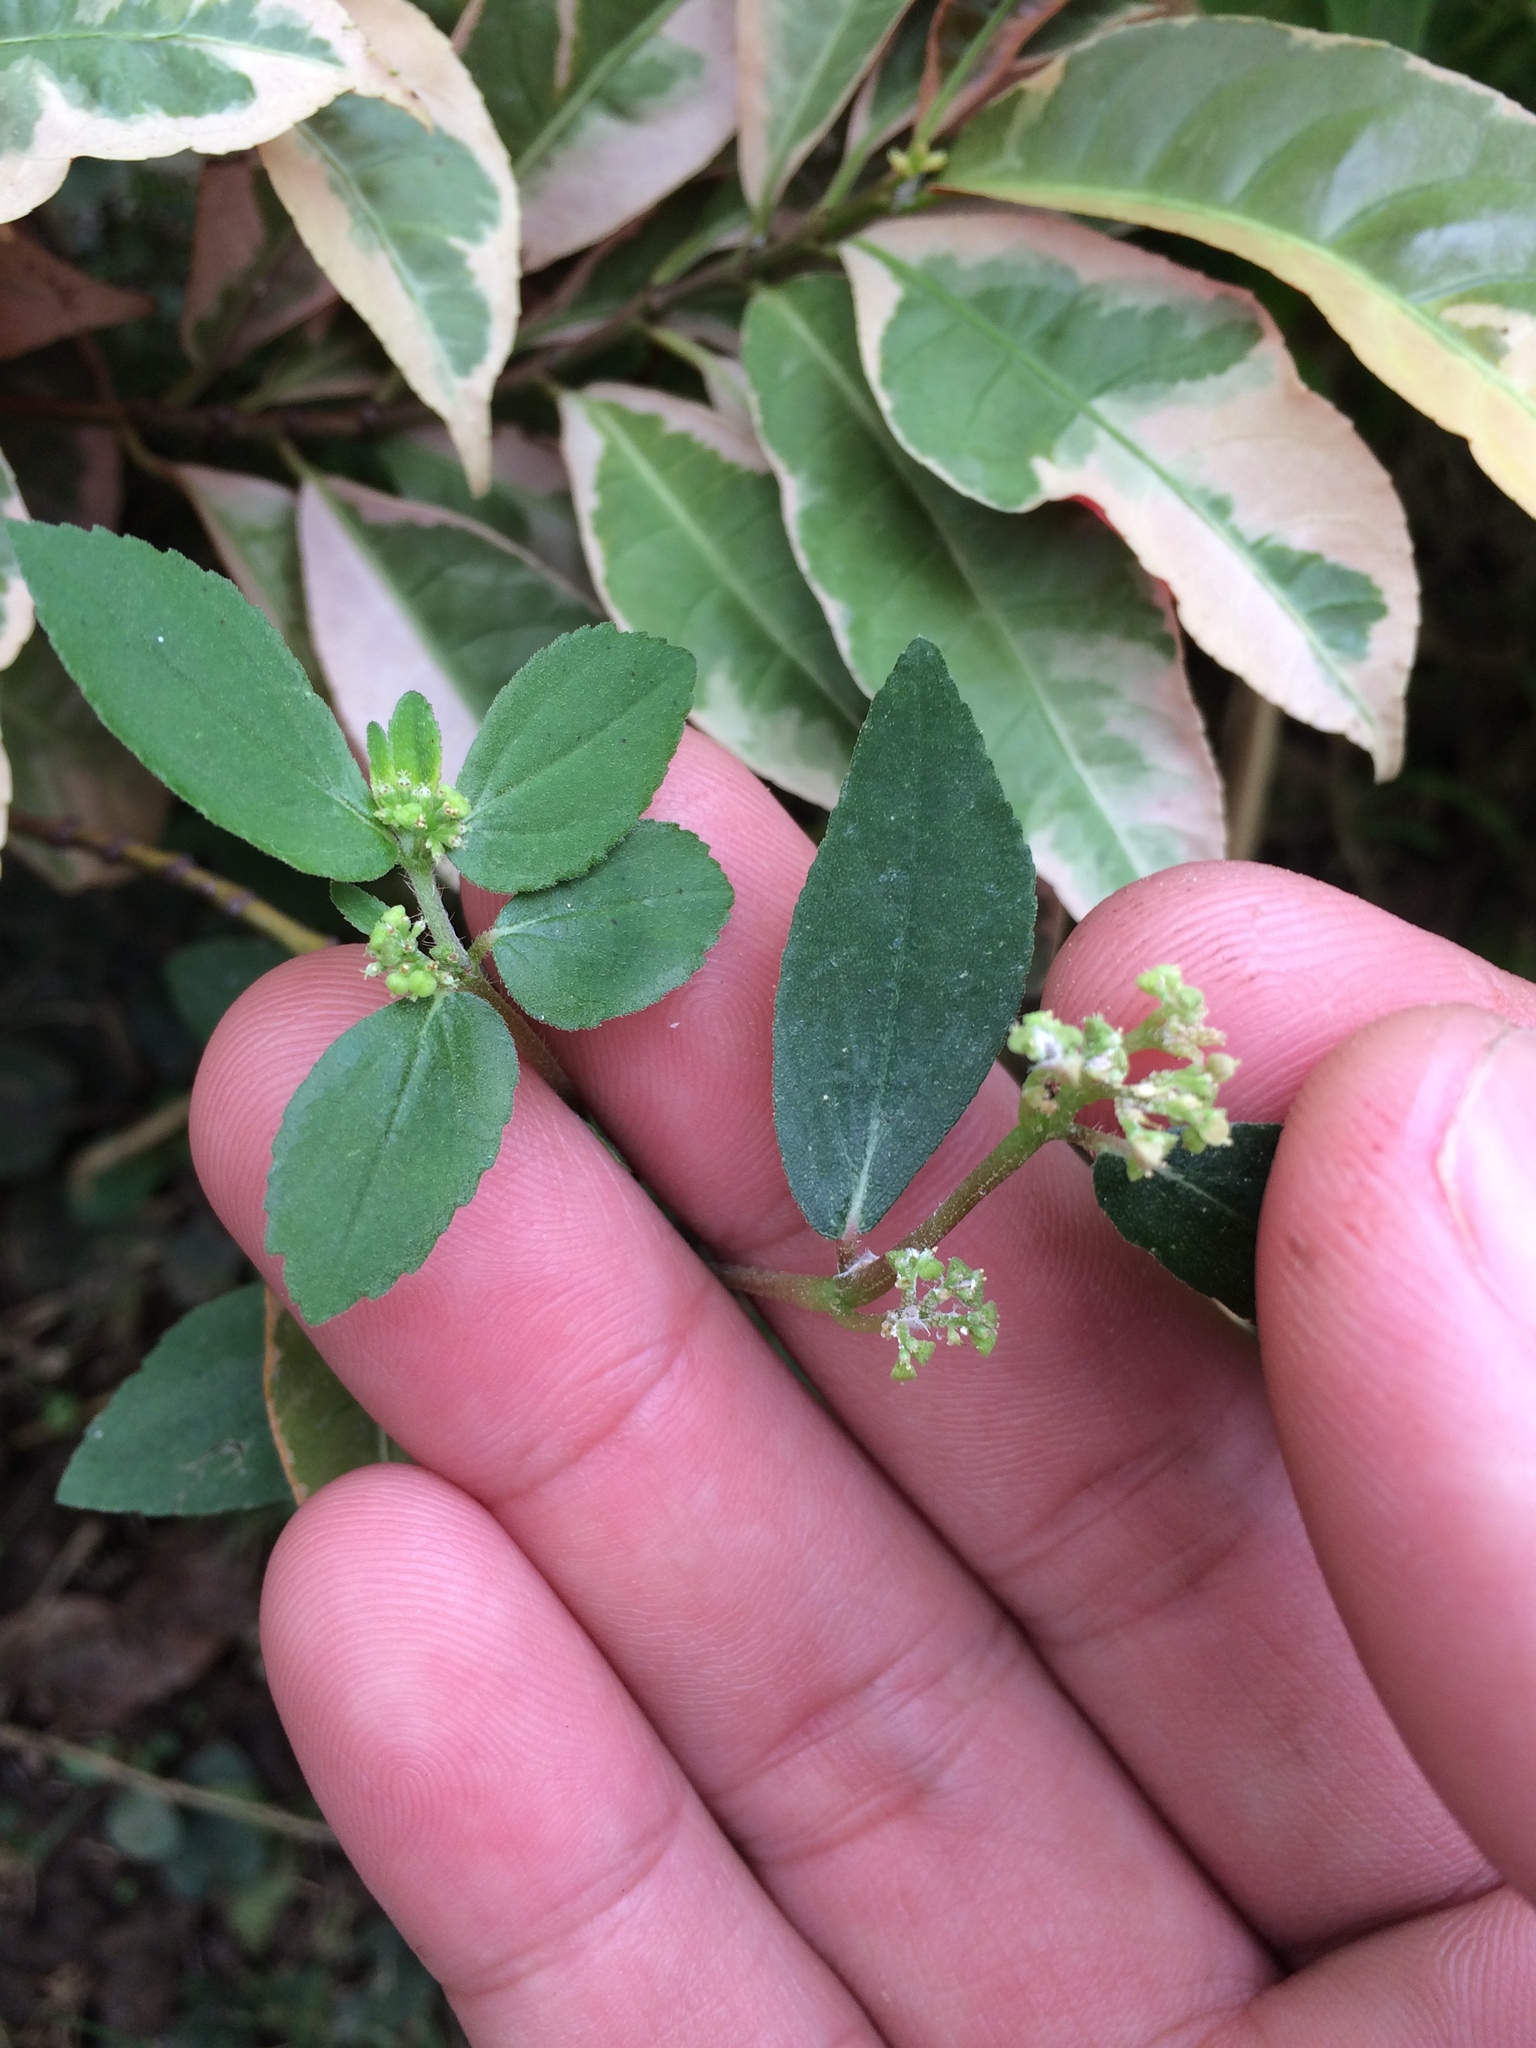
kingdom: Plantae
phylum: Tracheophyta
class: Magnoliopsida
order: Malpighiales
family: Euphorbiaceae
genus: Euphorbia
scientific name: Euphorbia hirta
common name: Pillpod sandmat
